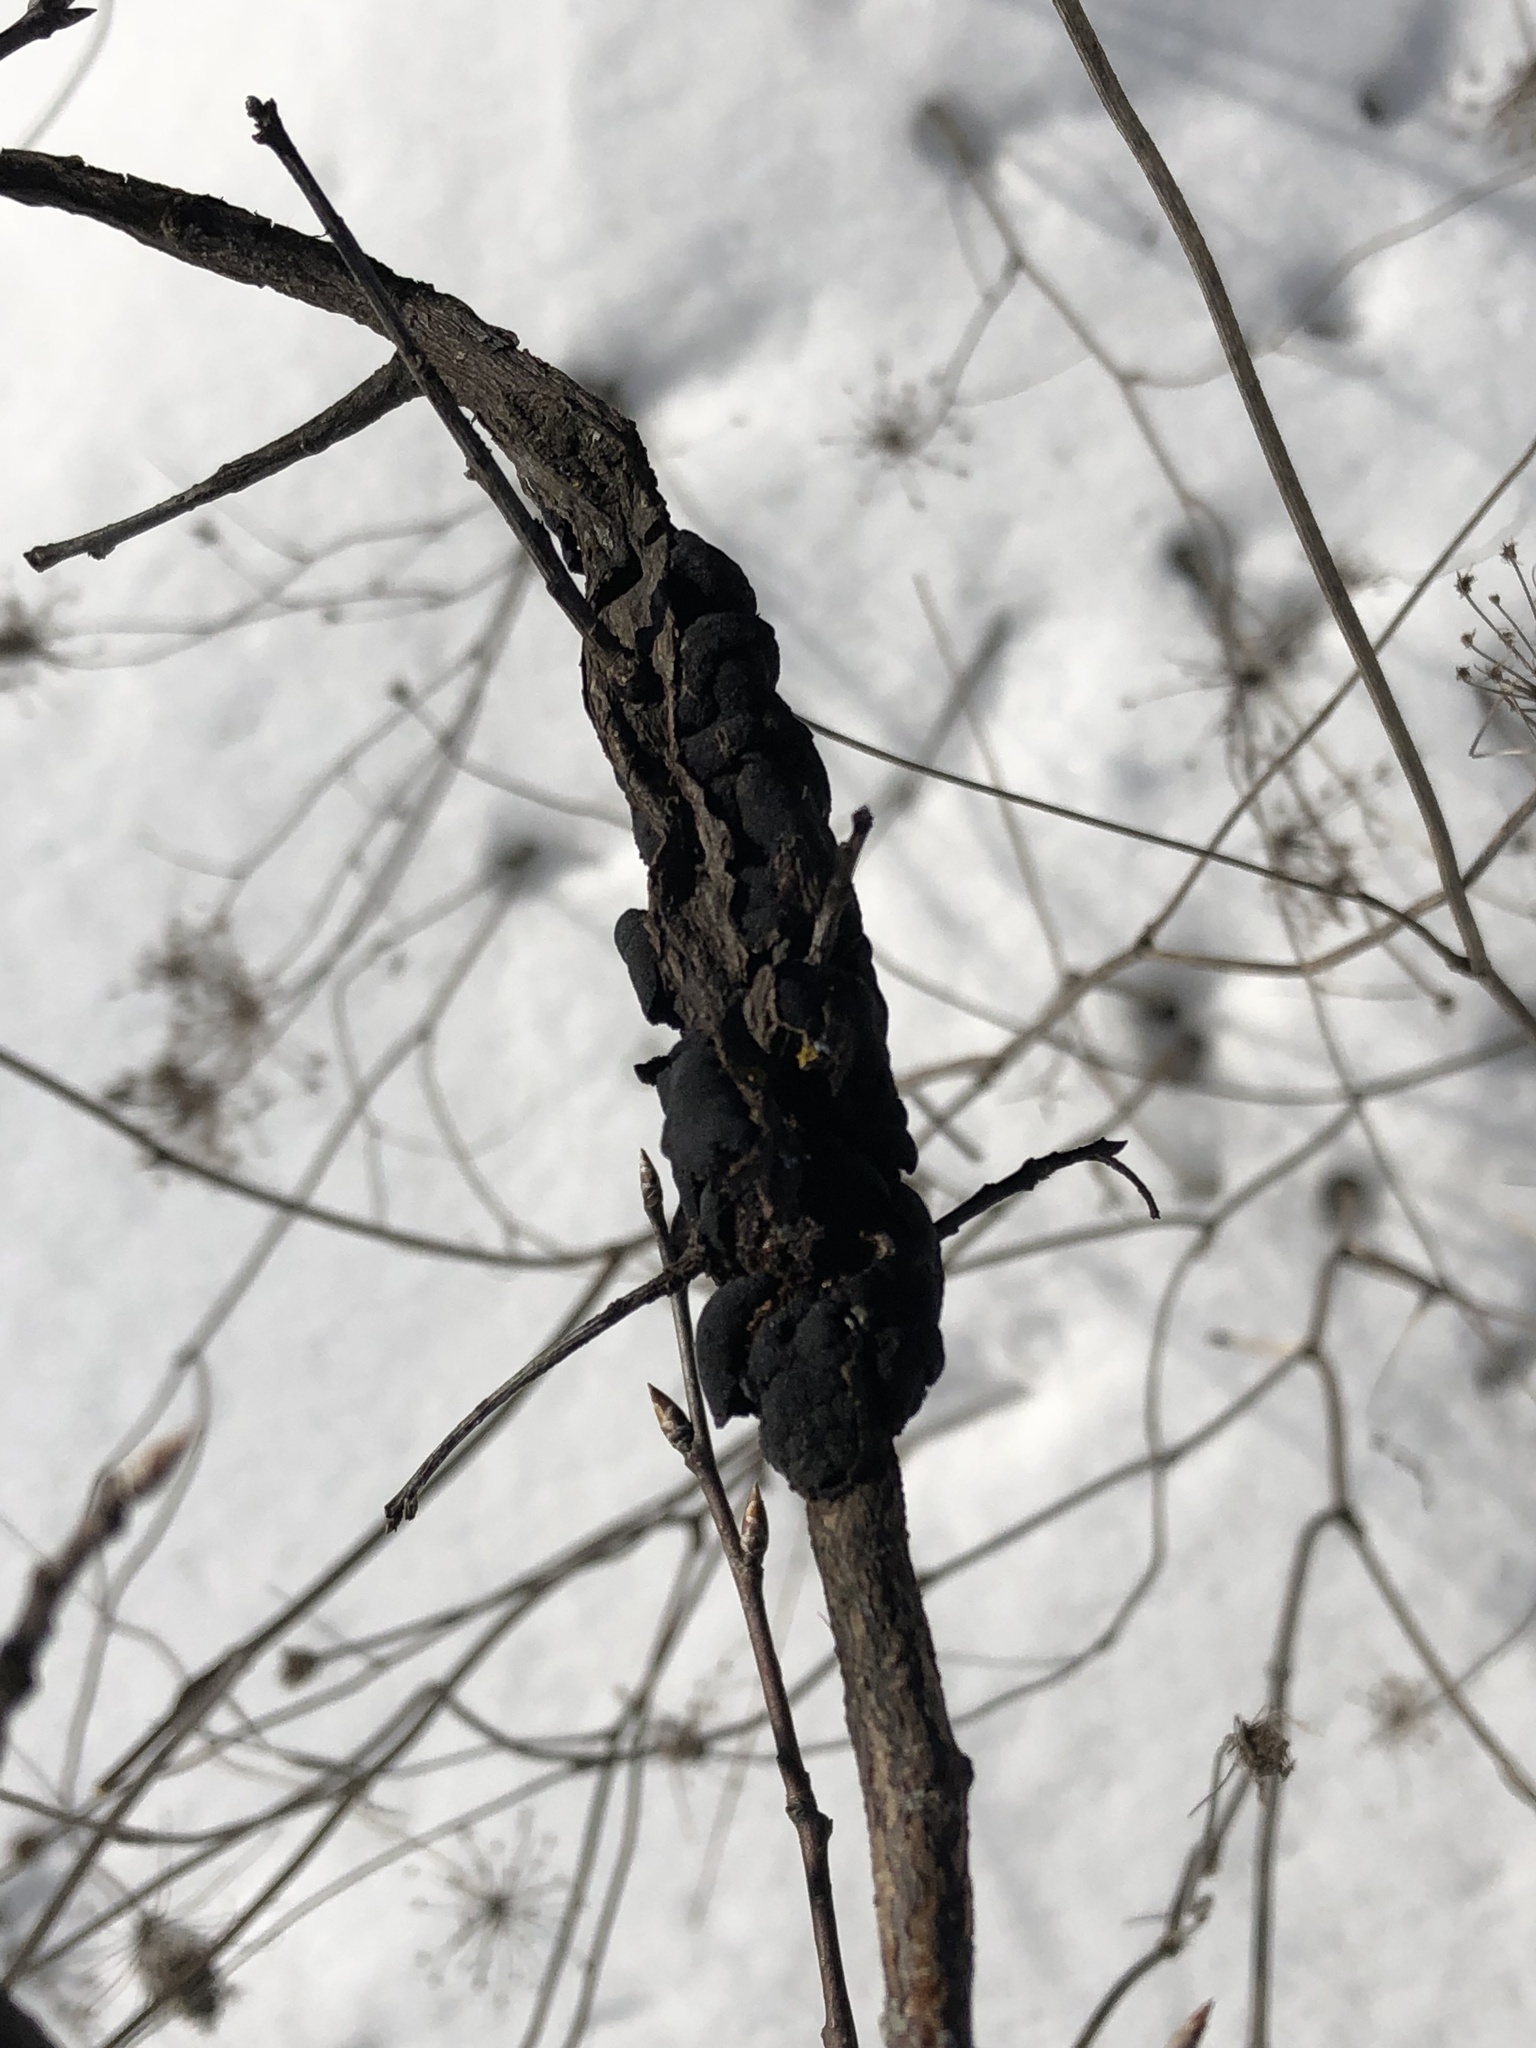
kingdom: Fungi
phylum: Ascomycota
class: Dothideomycetes
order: Venturiales
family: Venturiaceae
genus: Apiosporina
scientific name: Apiosporina morbosa
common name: Black knot
